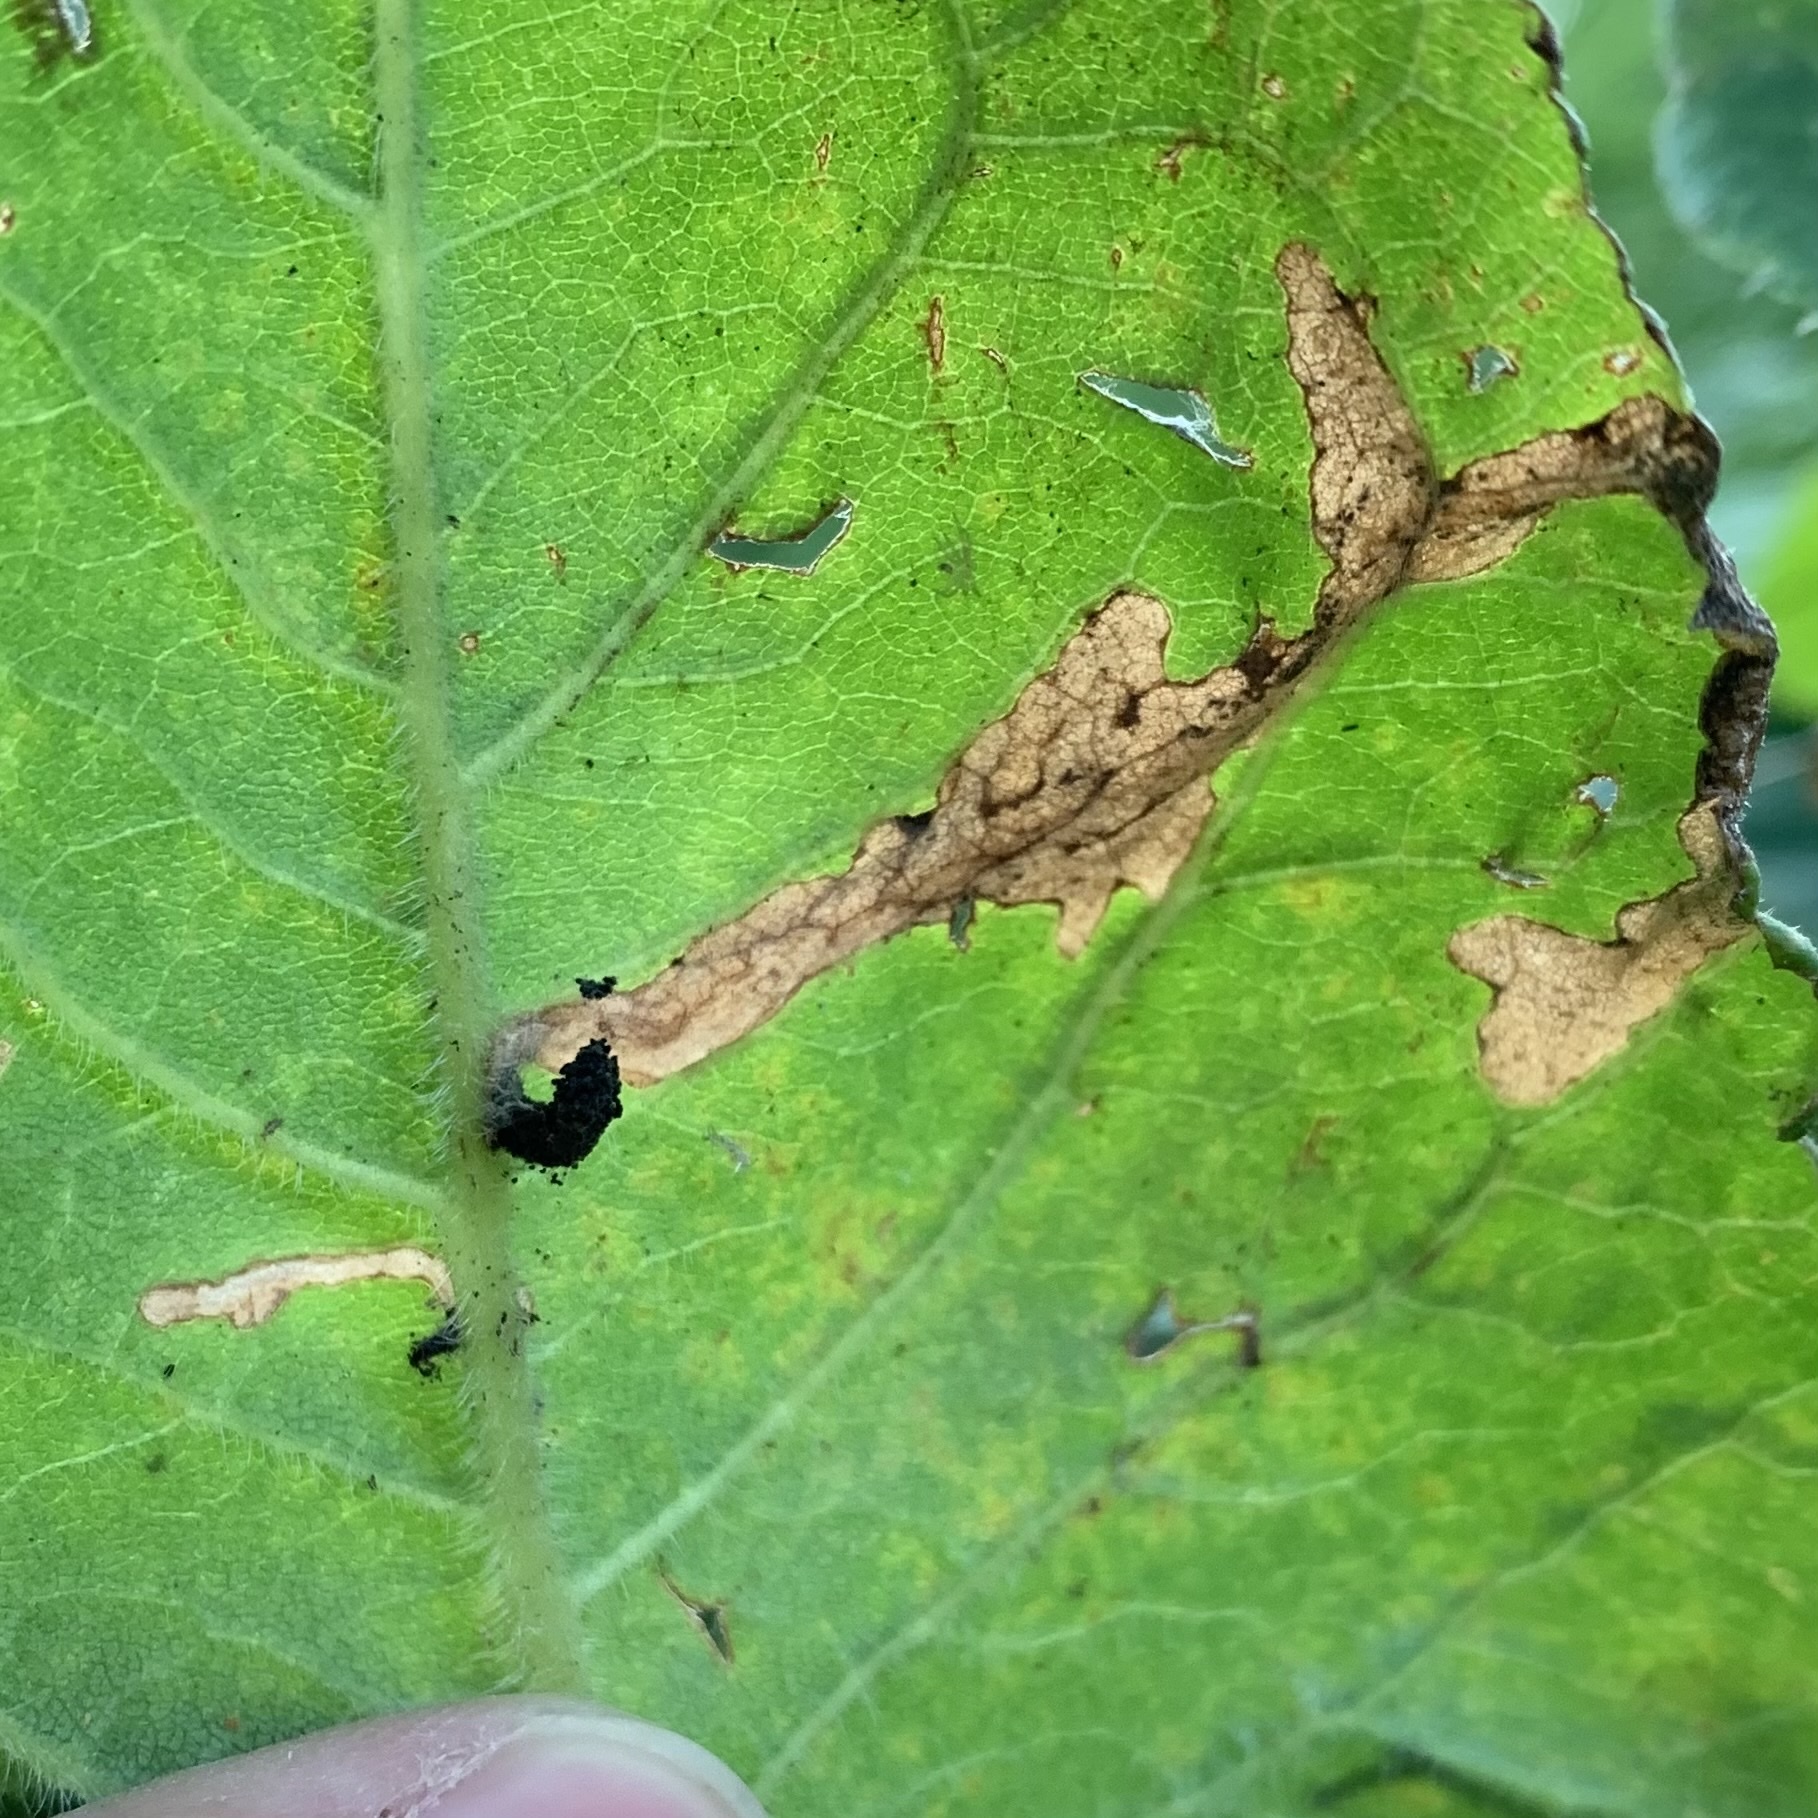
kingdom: Animalia
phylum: Arthropoda
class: Insecta
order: Lepidoptera
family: Gelechiidae
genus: Scrobipalpula
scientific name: Scrobipalpula manierreorum
